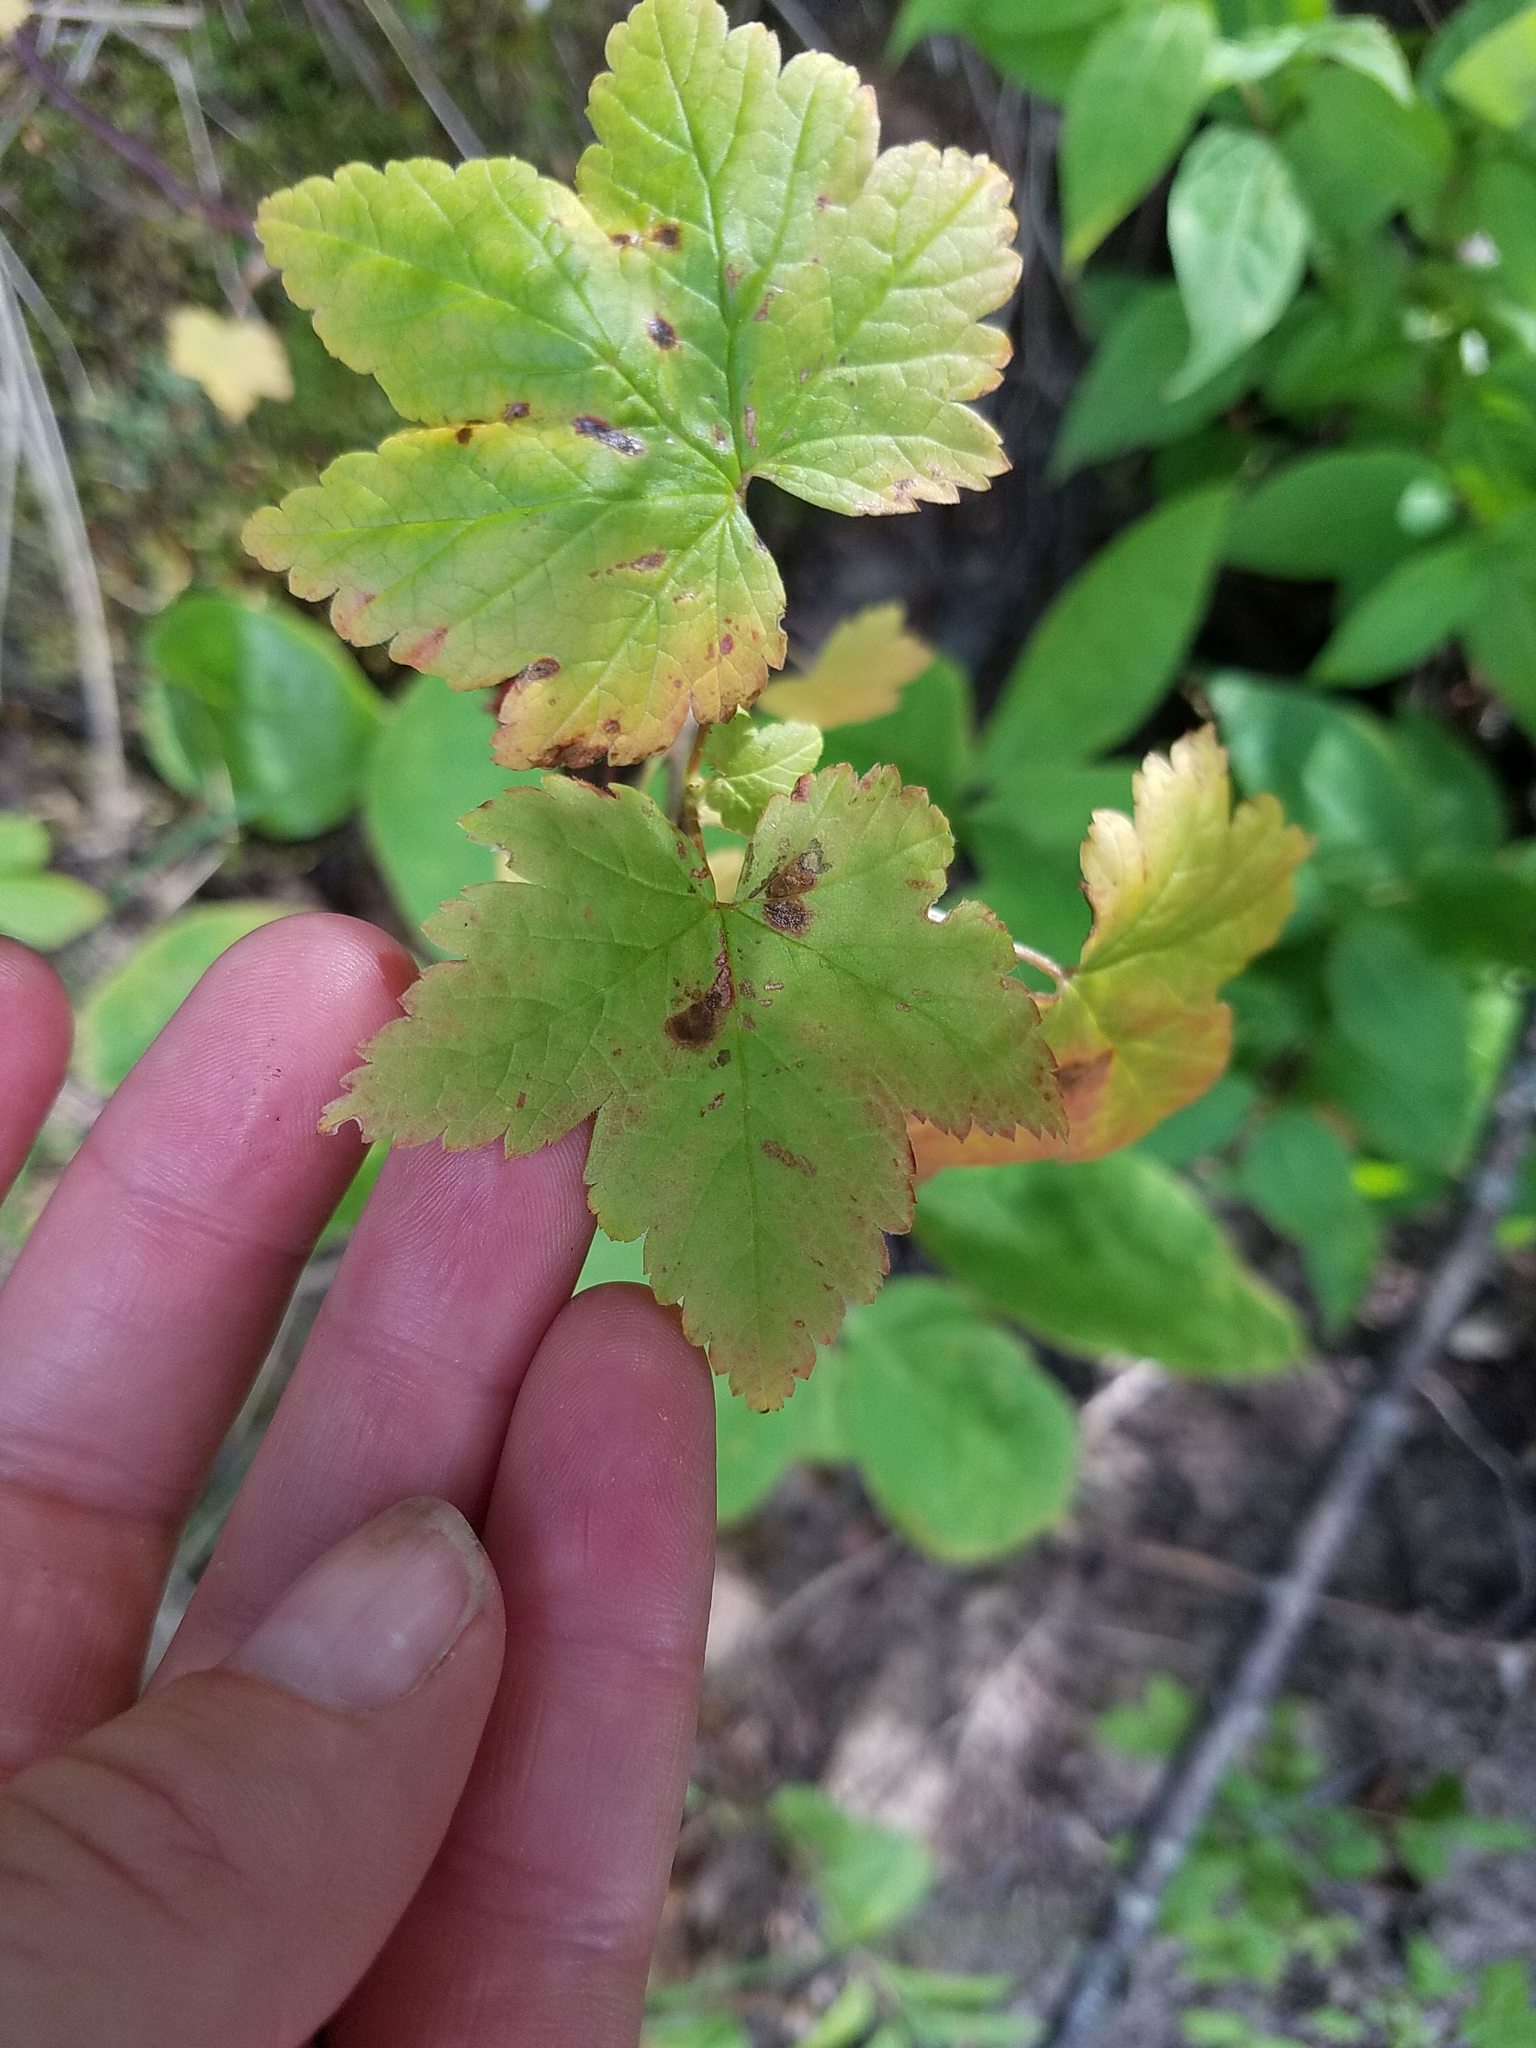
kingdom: Plantae
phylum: Tracheophyta
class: Magnoliopsida
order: Saxifragales
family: Grossulariaceae
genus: Ribes
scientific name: Ribes glandulosum
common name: Skunk currant
